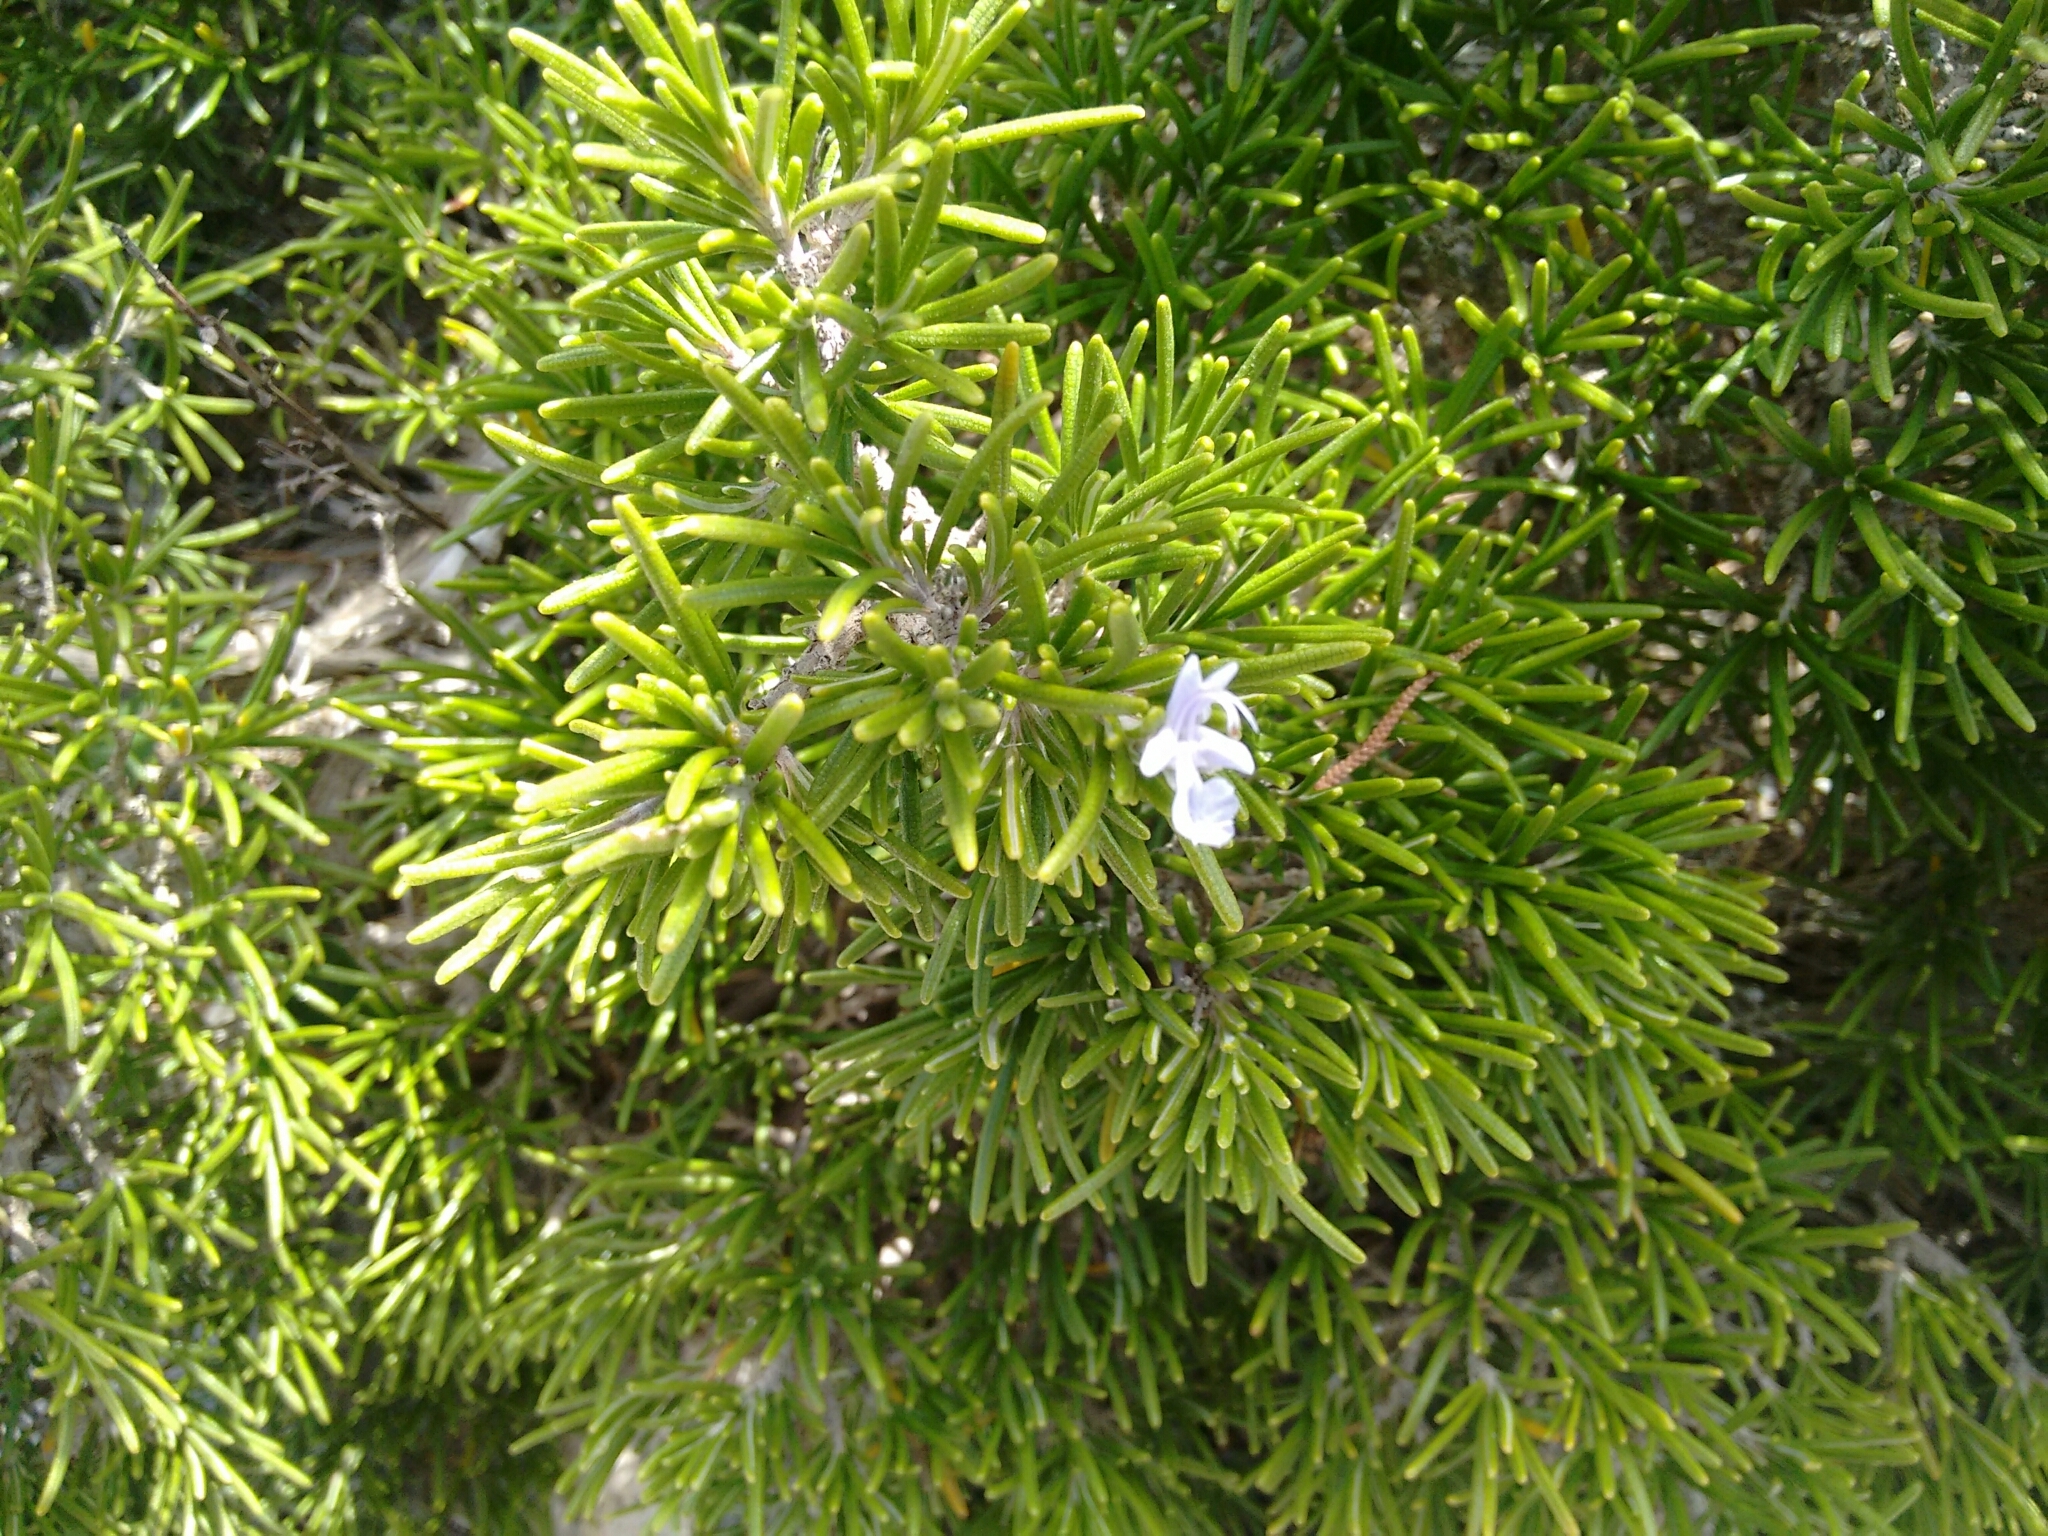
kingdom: Plantae
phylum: Tracheophyta
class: Magnoliopsida
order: Lamiales
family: Lamiaceae
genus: Salvia
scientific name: Salvia rosmarinus
